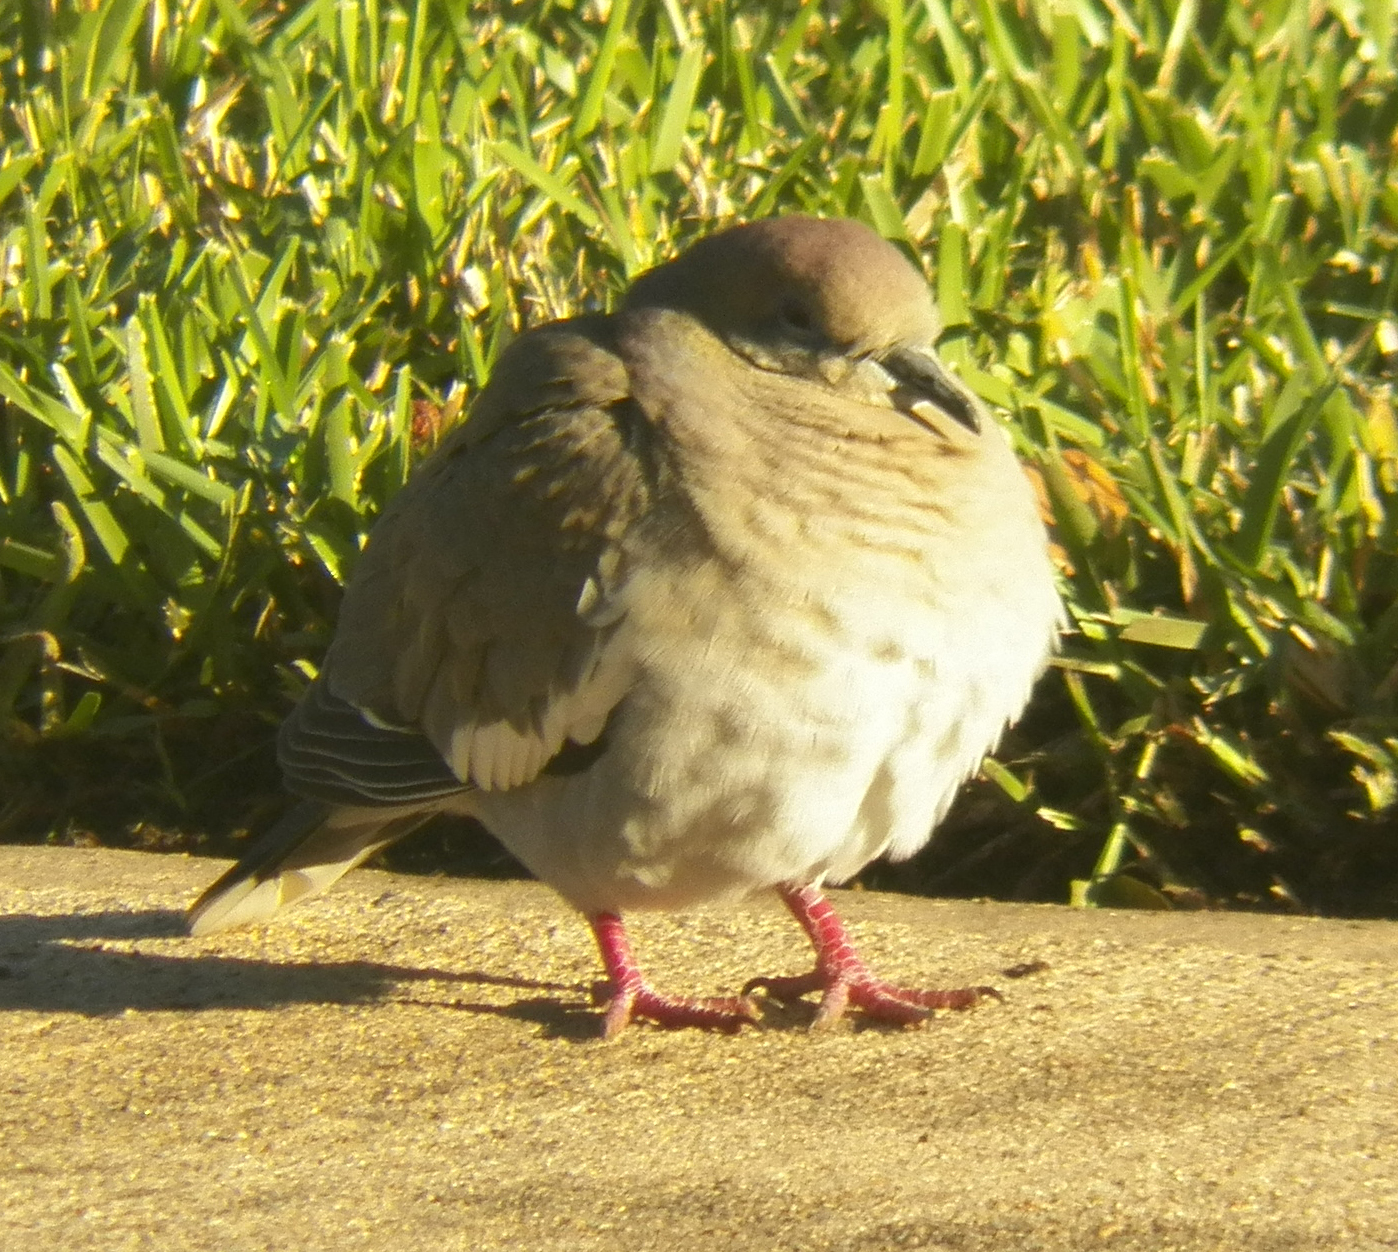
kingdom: Animalia
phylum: Chordata
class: Aves
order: Columbiformes
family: Columbidae
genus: Zenaida
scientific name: Zenaida asiatica
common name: White-winged dove
